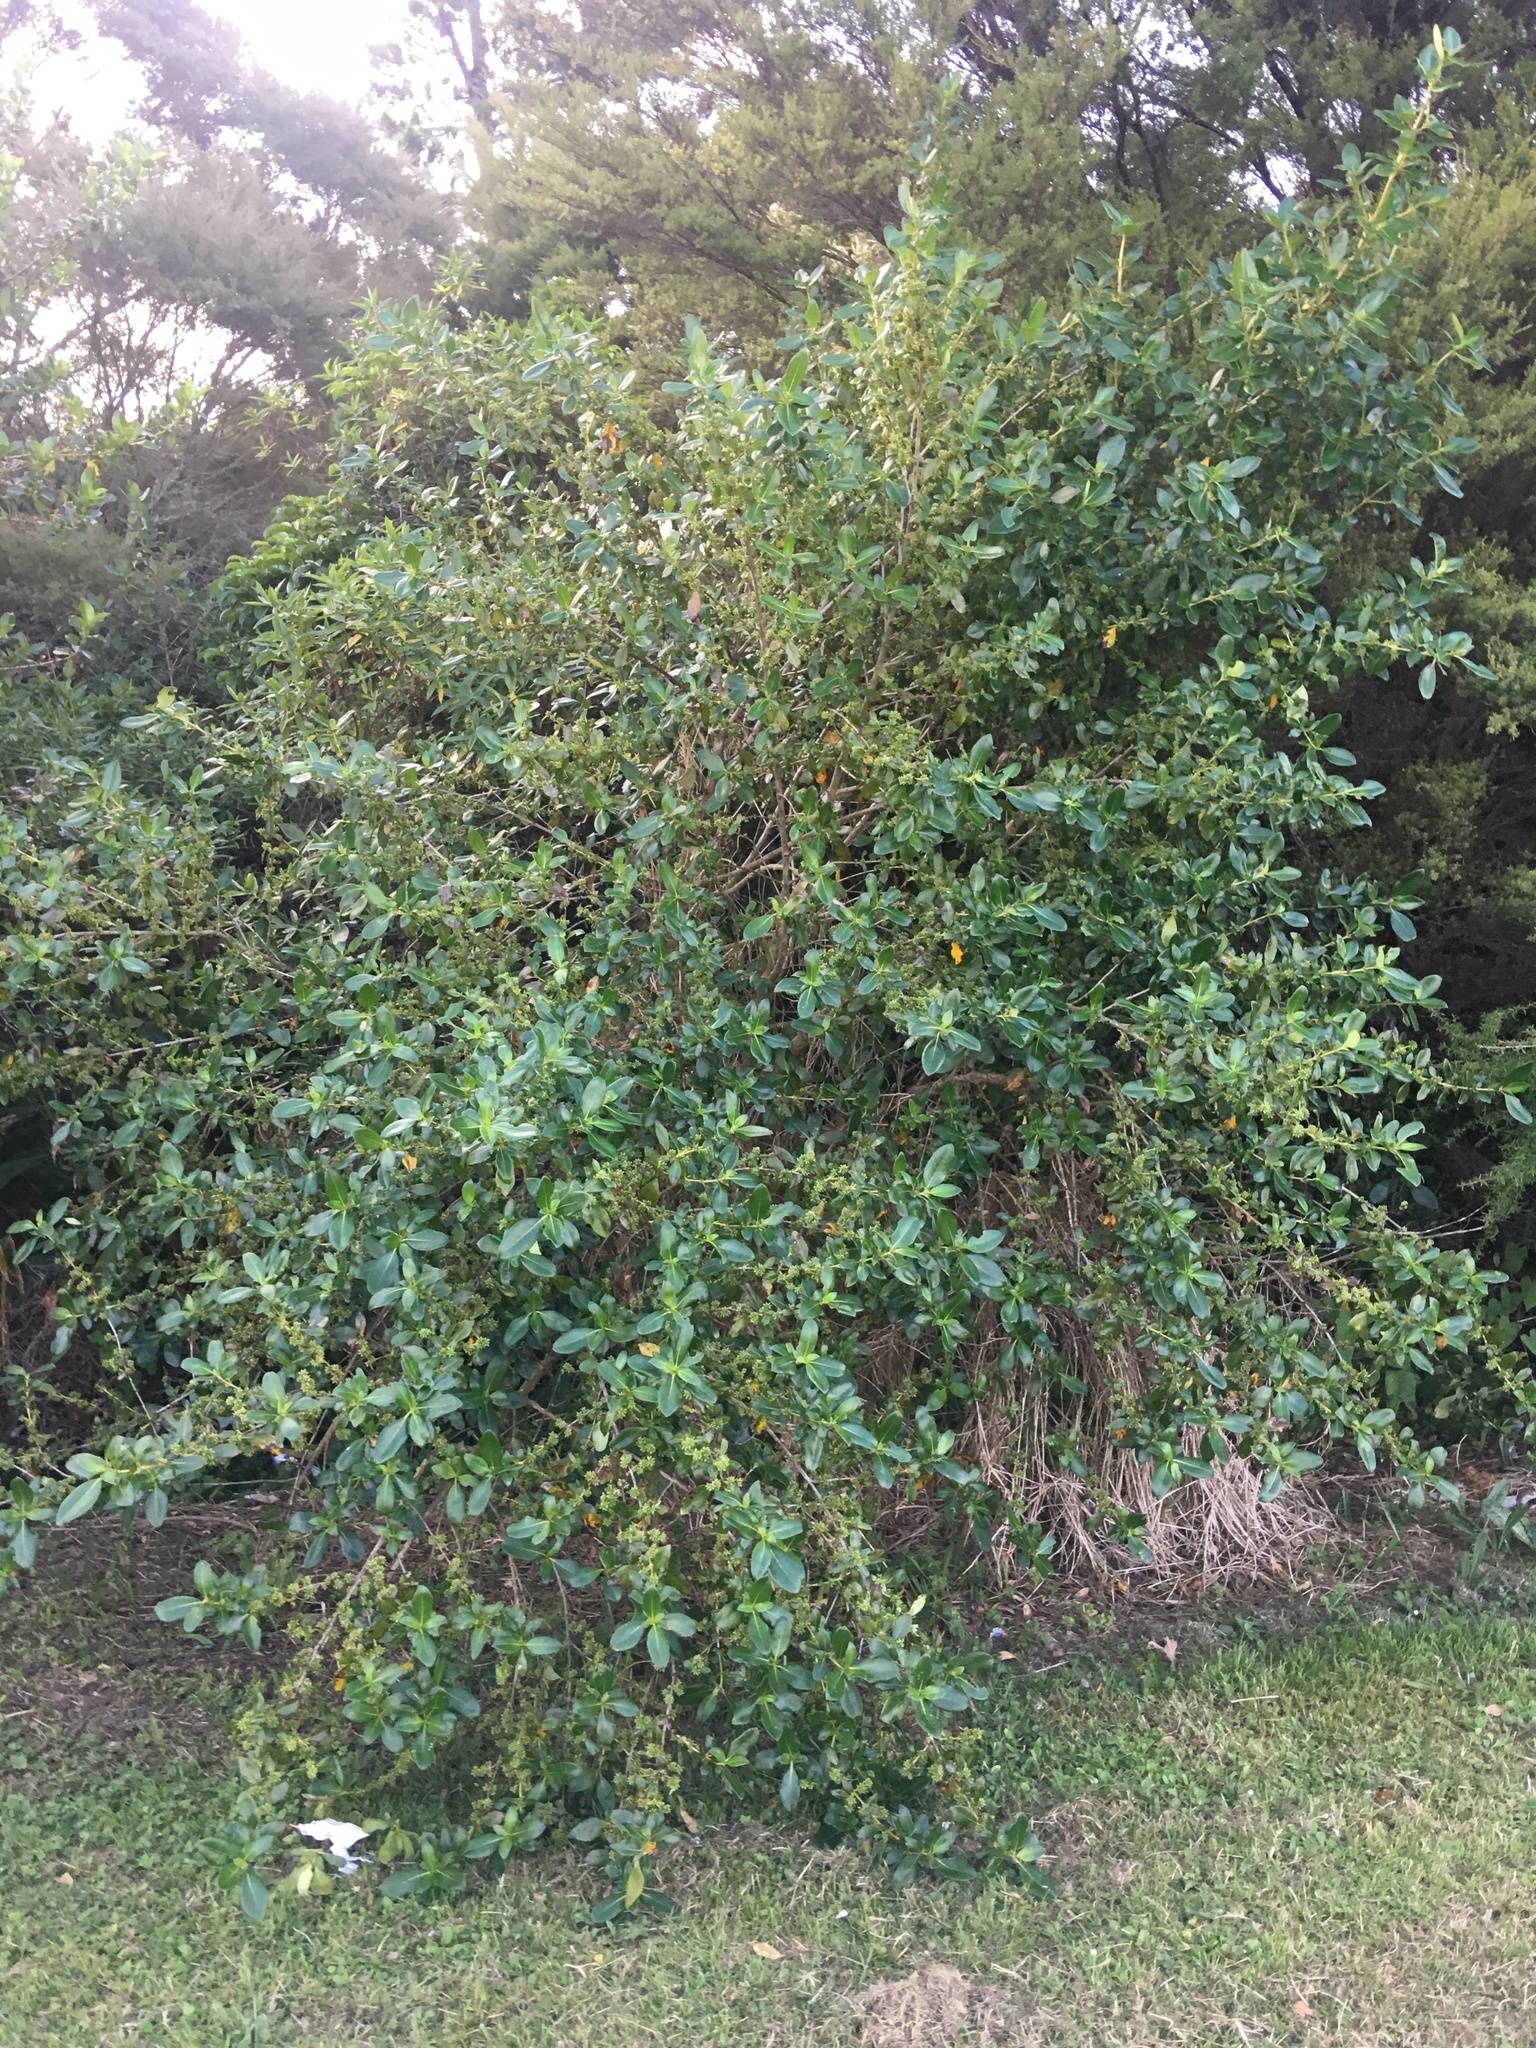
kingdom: Plantae
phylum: Tracheophyta
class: Magnoliopsida
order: Gentianales
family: Rubiaceae
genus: Coprosma
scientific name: Coprosma robusta
